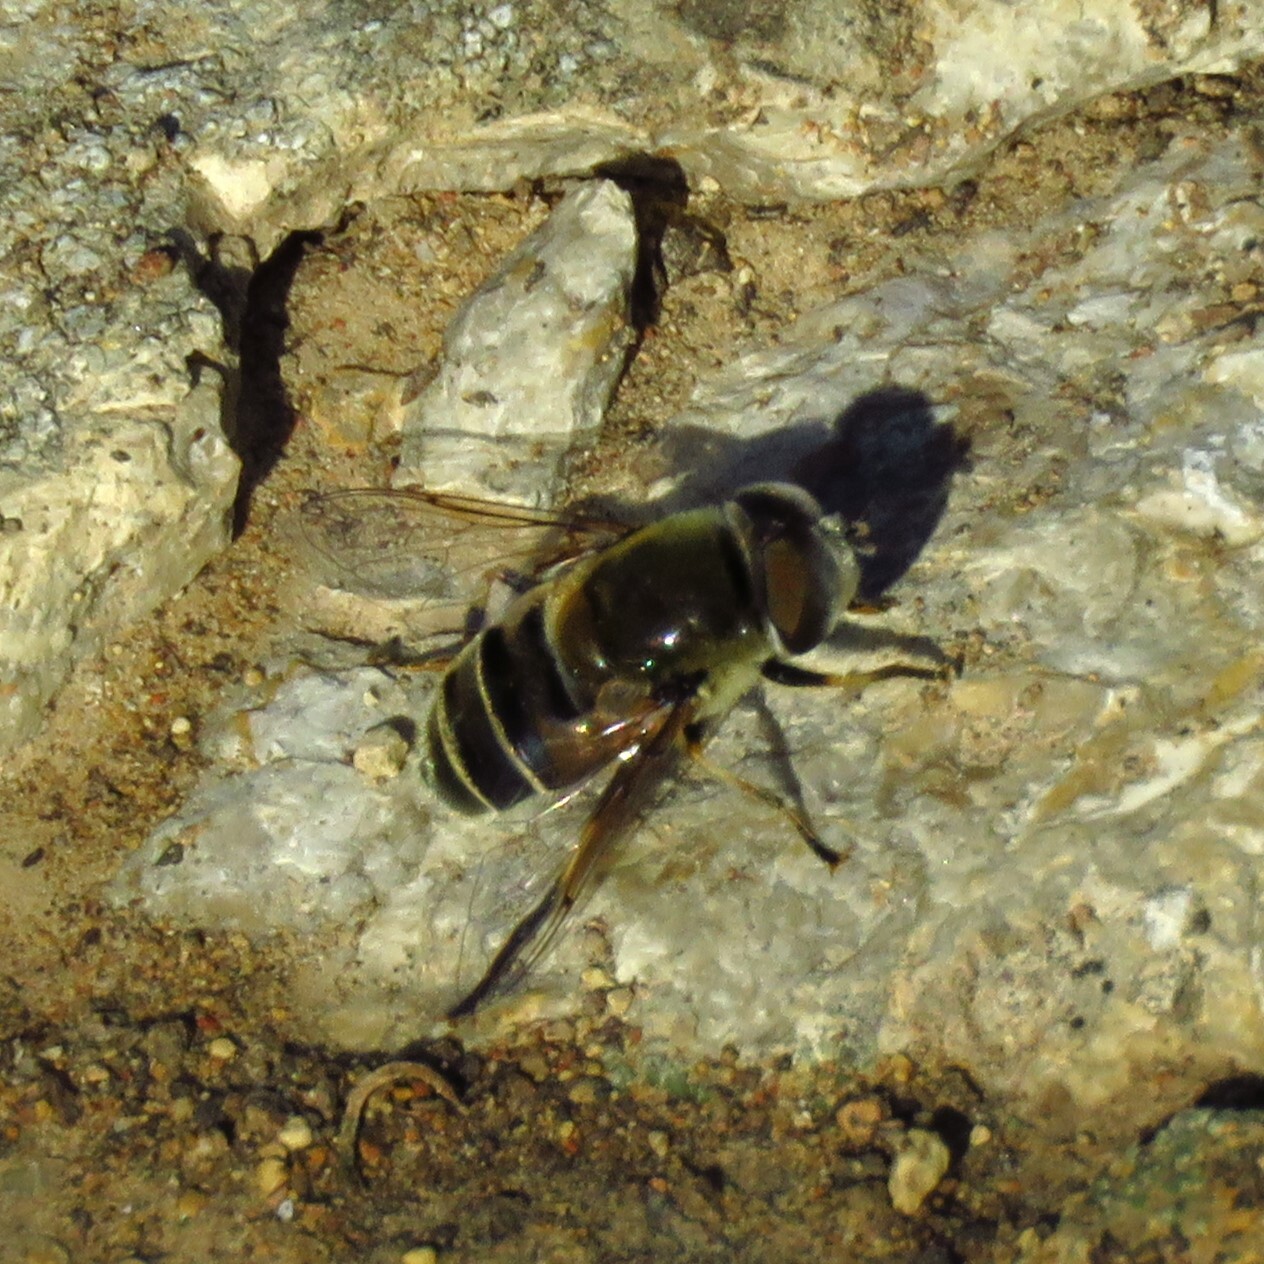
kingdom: Animalia
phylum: Arthropoda
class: Insecta
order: Diptera
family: Syrphidae
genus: Eristalis
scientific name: Eristalis stipator
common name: Yellow-shouldered drone fly
